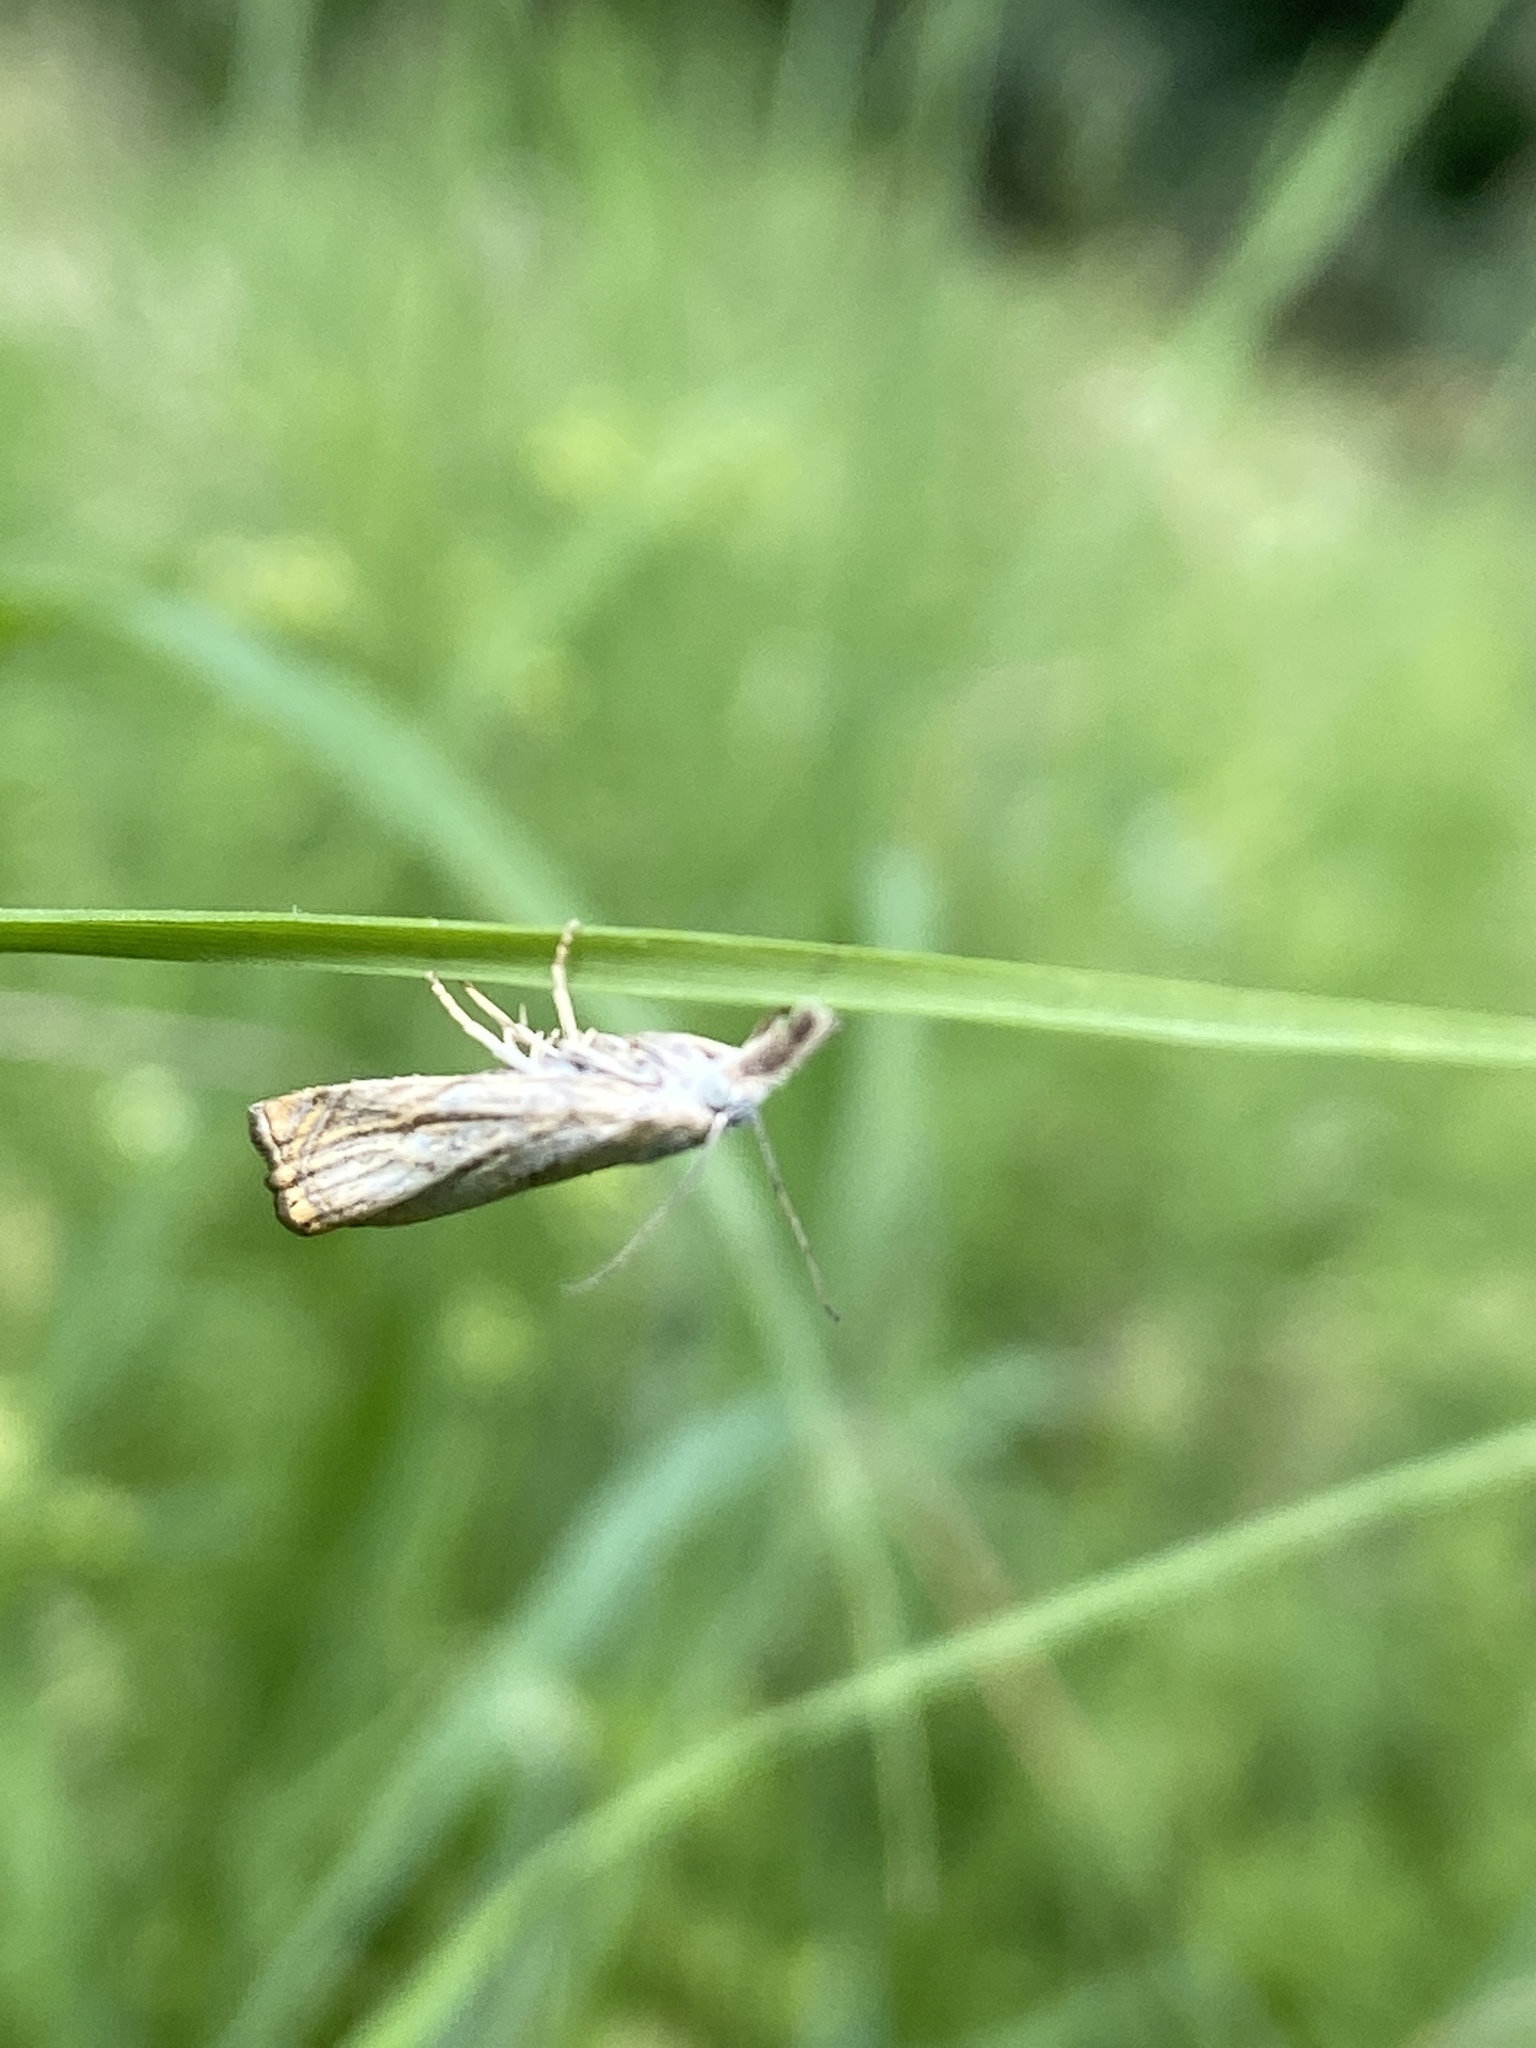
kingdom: Animalia
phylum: Arthropoda
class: Insecta
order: Lepidoptera
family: Crambidae
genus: Chrysoteuchia
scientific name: Chrysoteuchia culmella
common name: Garden grass-veneer
